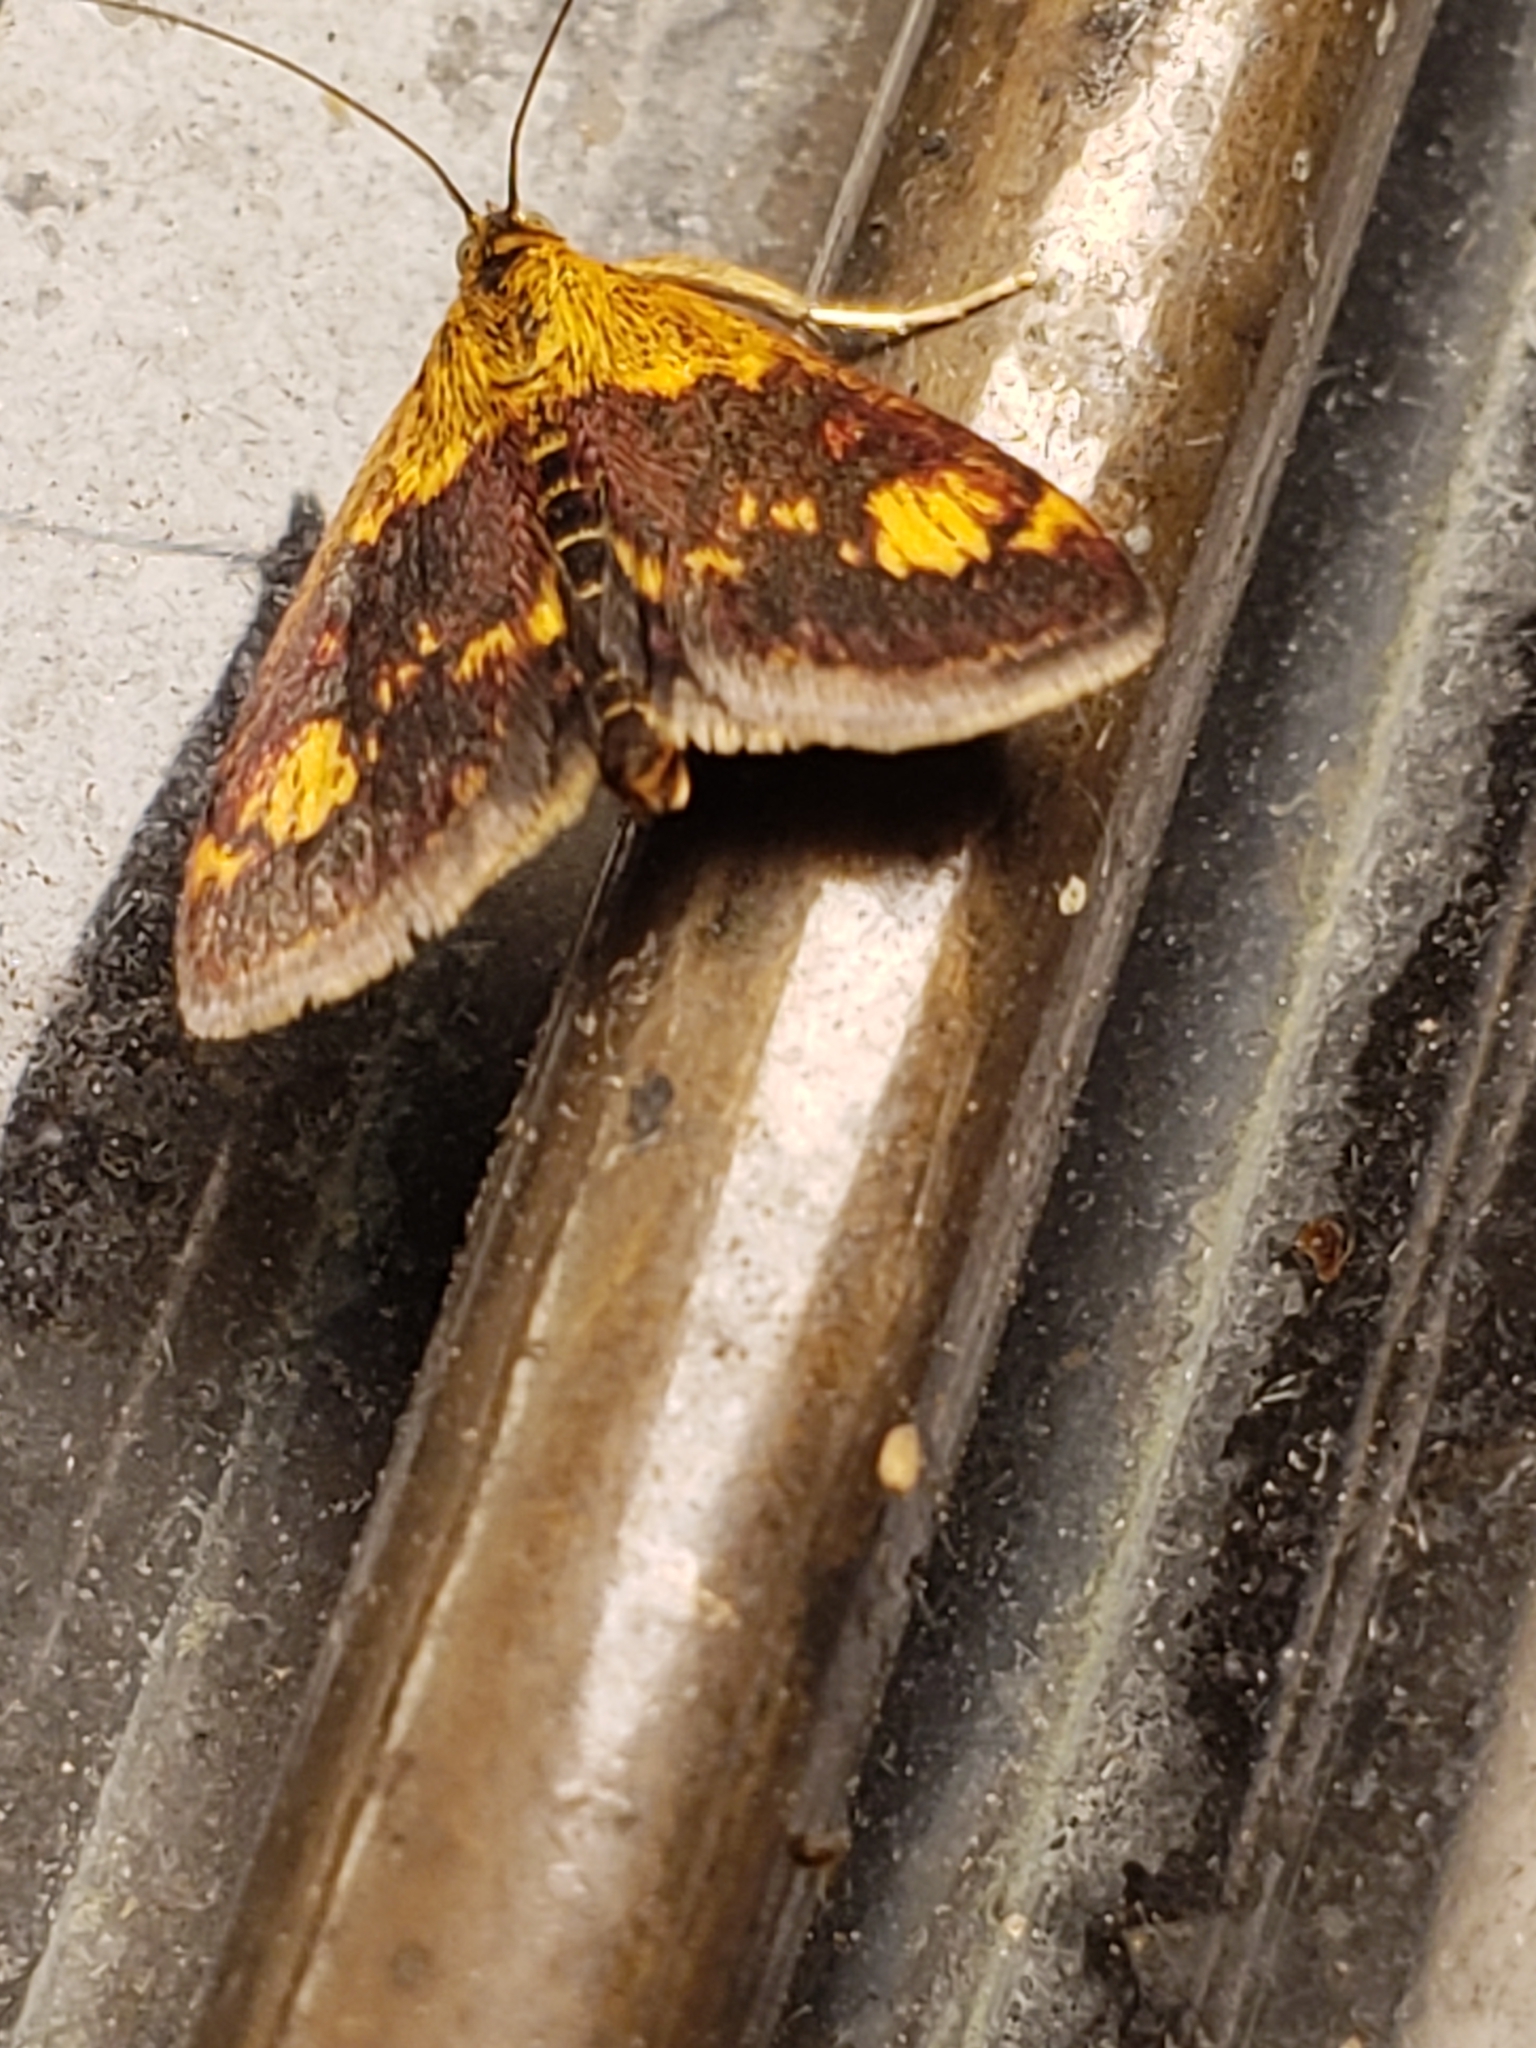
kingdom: Animalia
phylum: Arthropoda
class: Insecta
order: Lepidoptera
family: Crambidae
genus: Pyrausta
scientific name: Pyrausta orphisalis
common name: Orange mint moth
